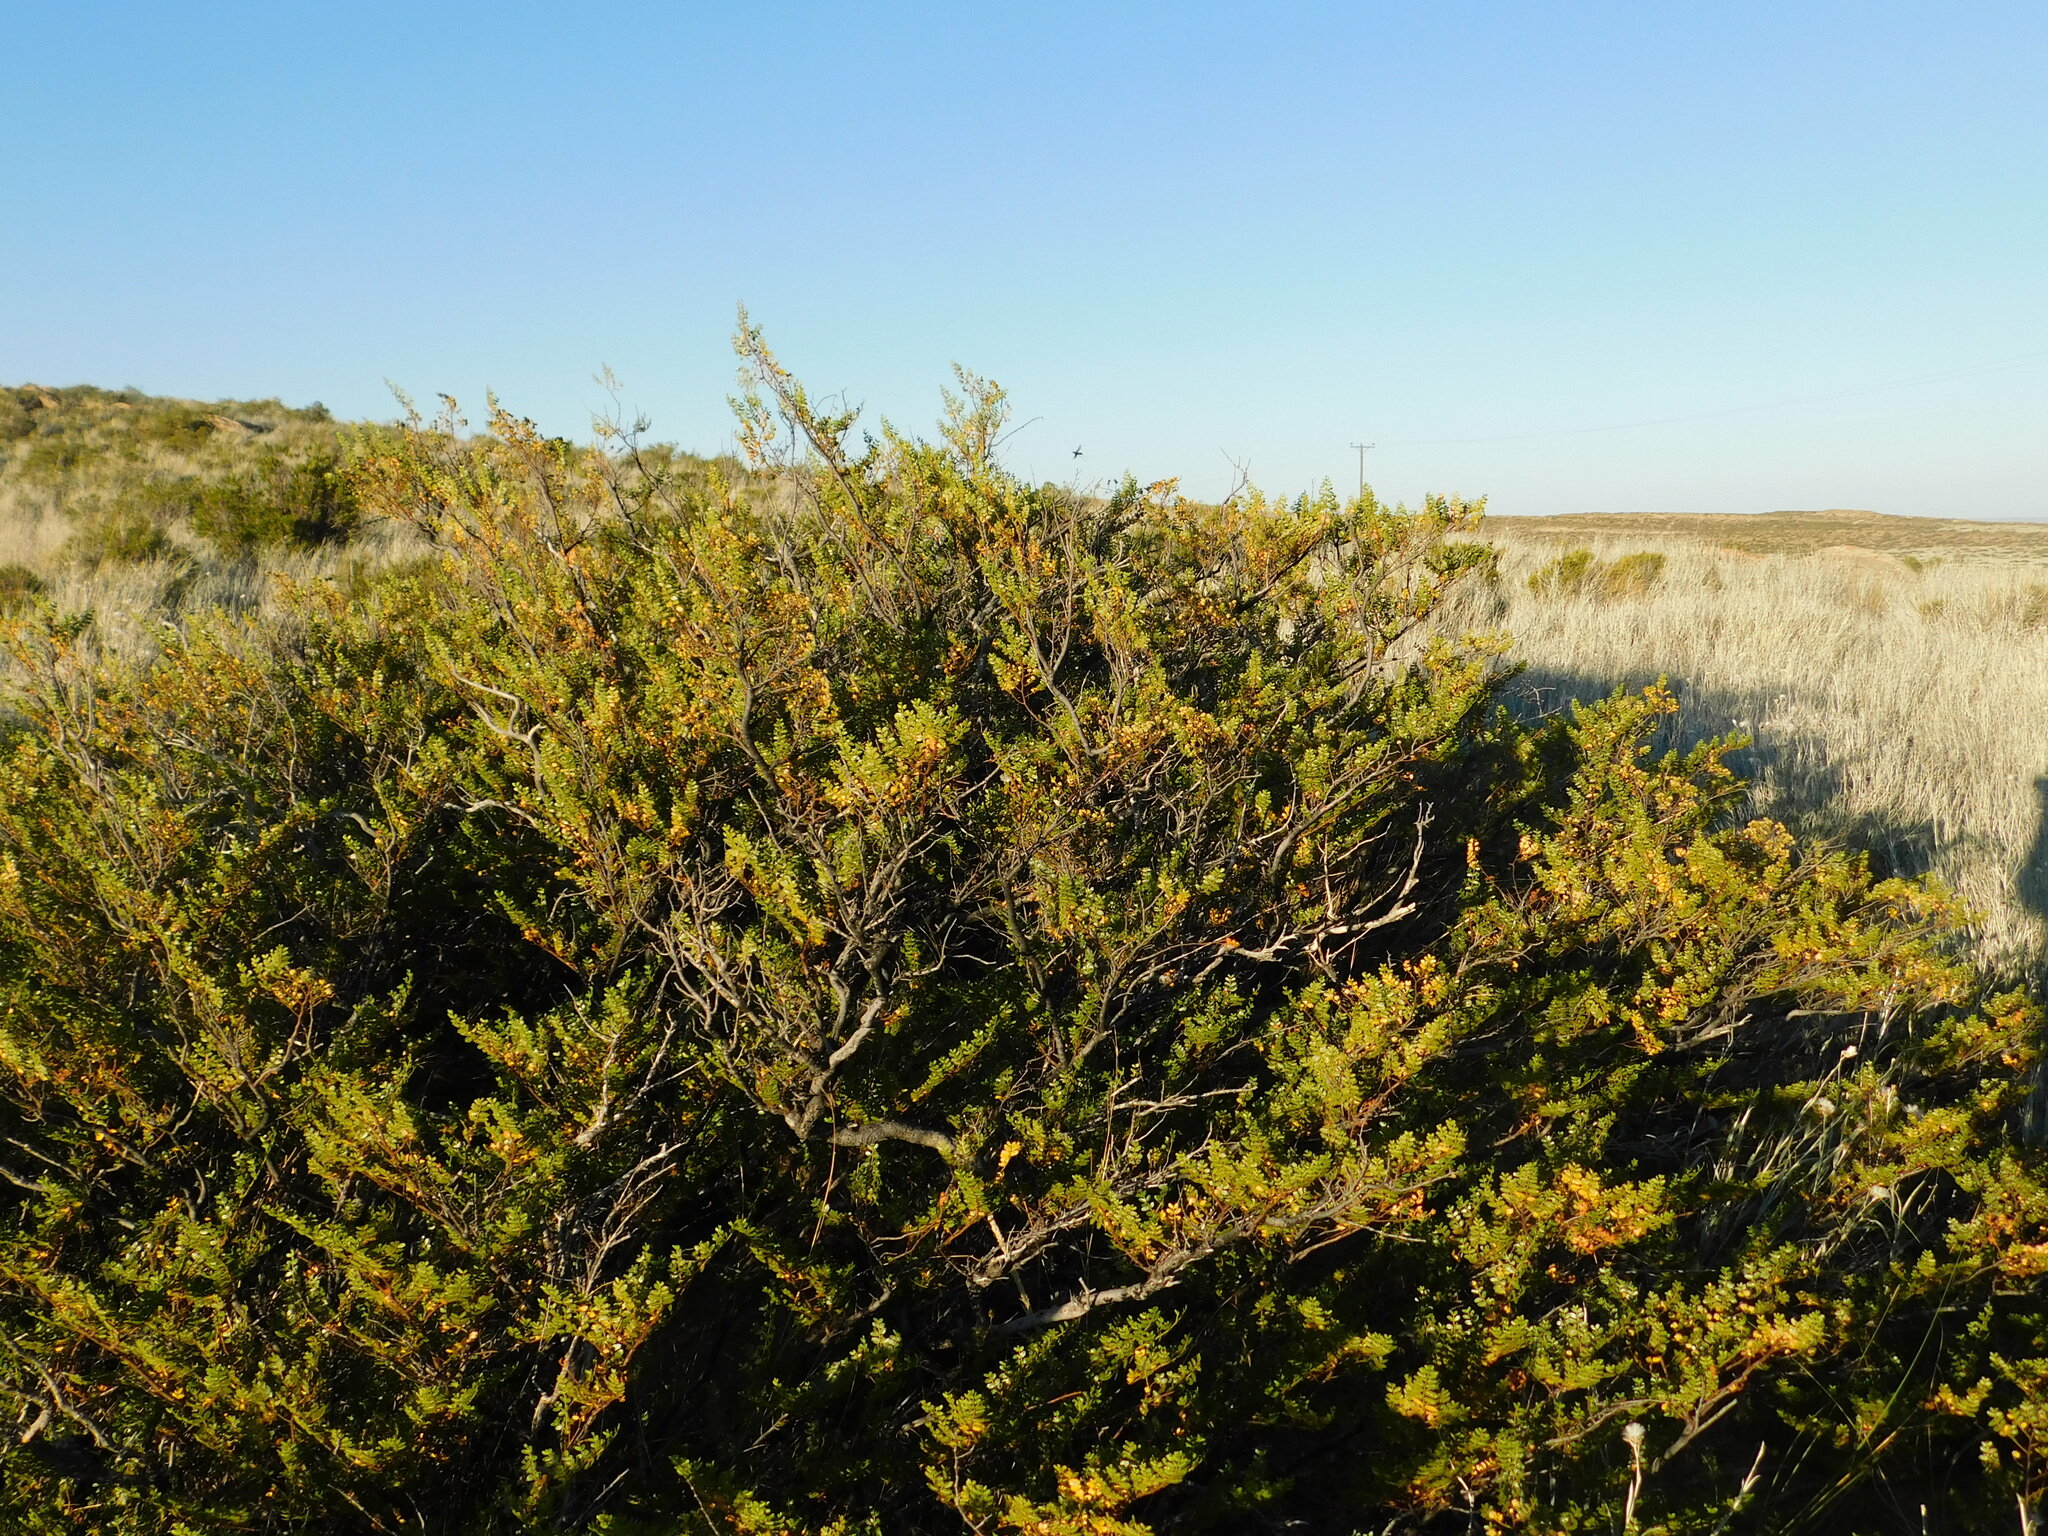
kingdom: Plantae
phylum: Tracheophyta
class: Magnoliopsida
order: Zygophyllales
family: Zygophyllaceae
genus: Larrea
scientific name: Larrea nitida
